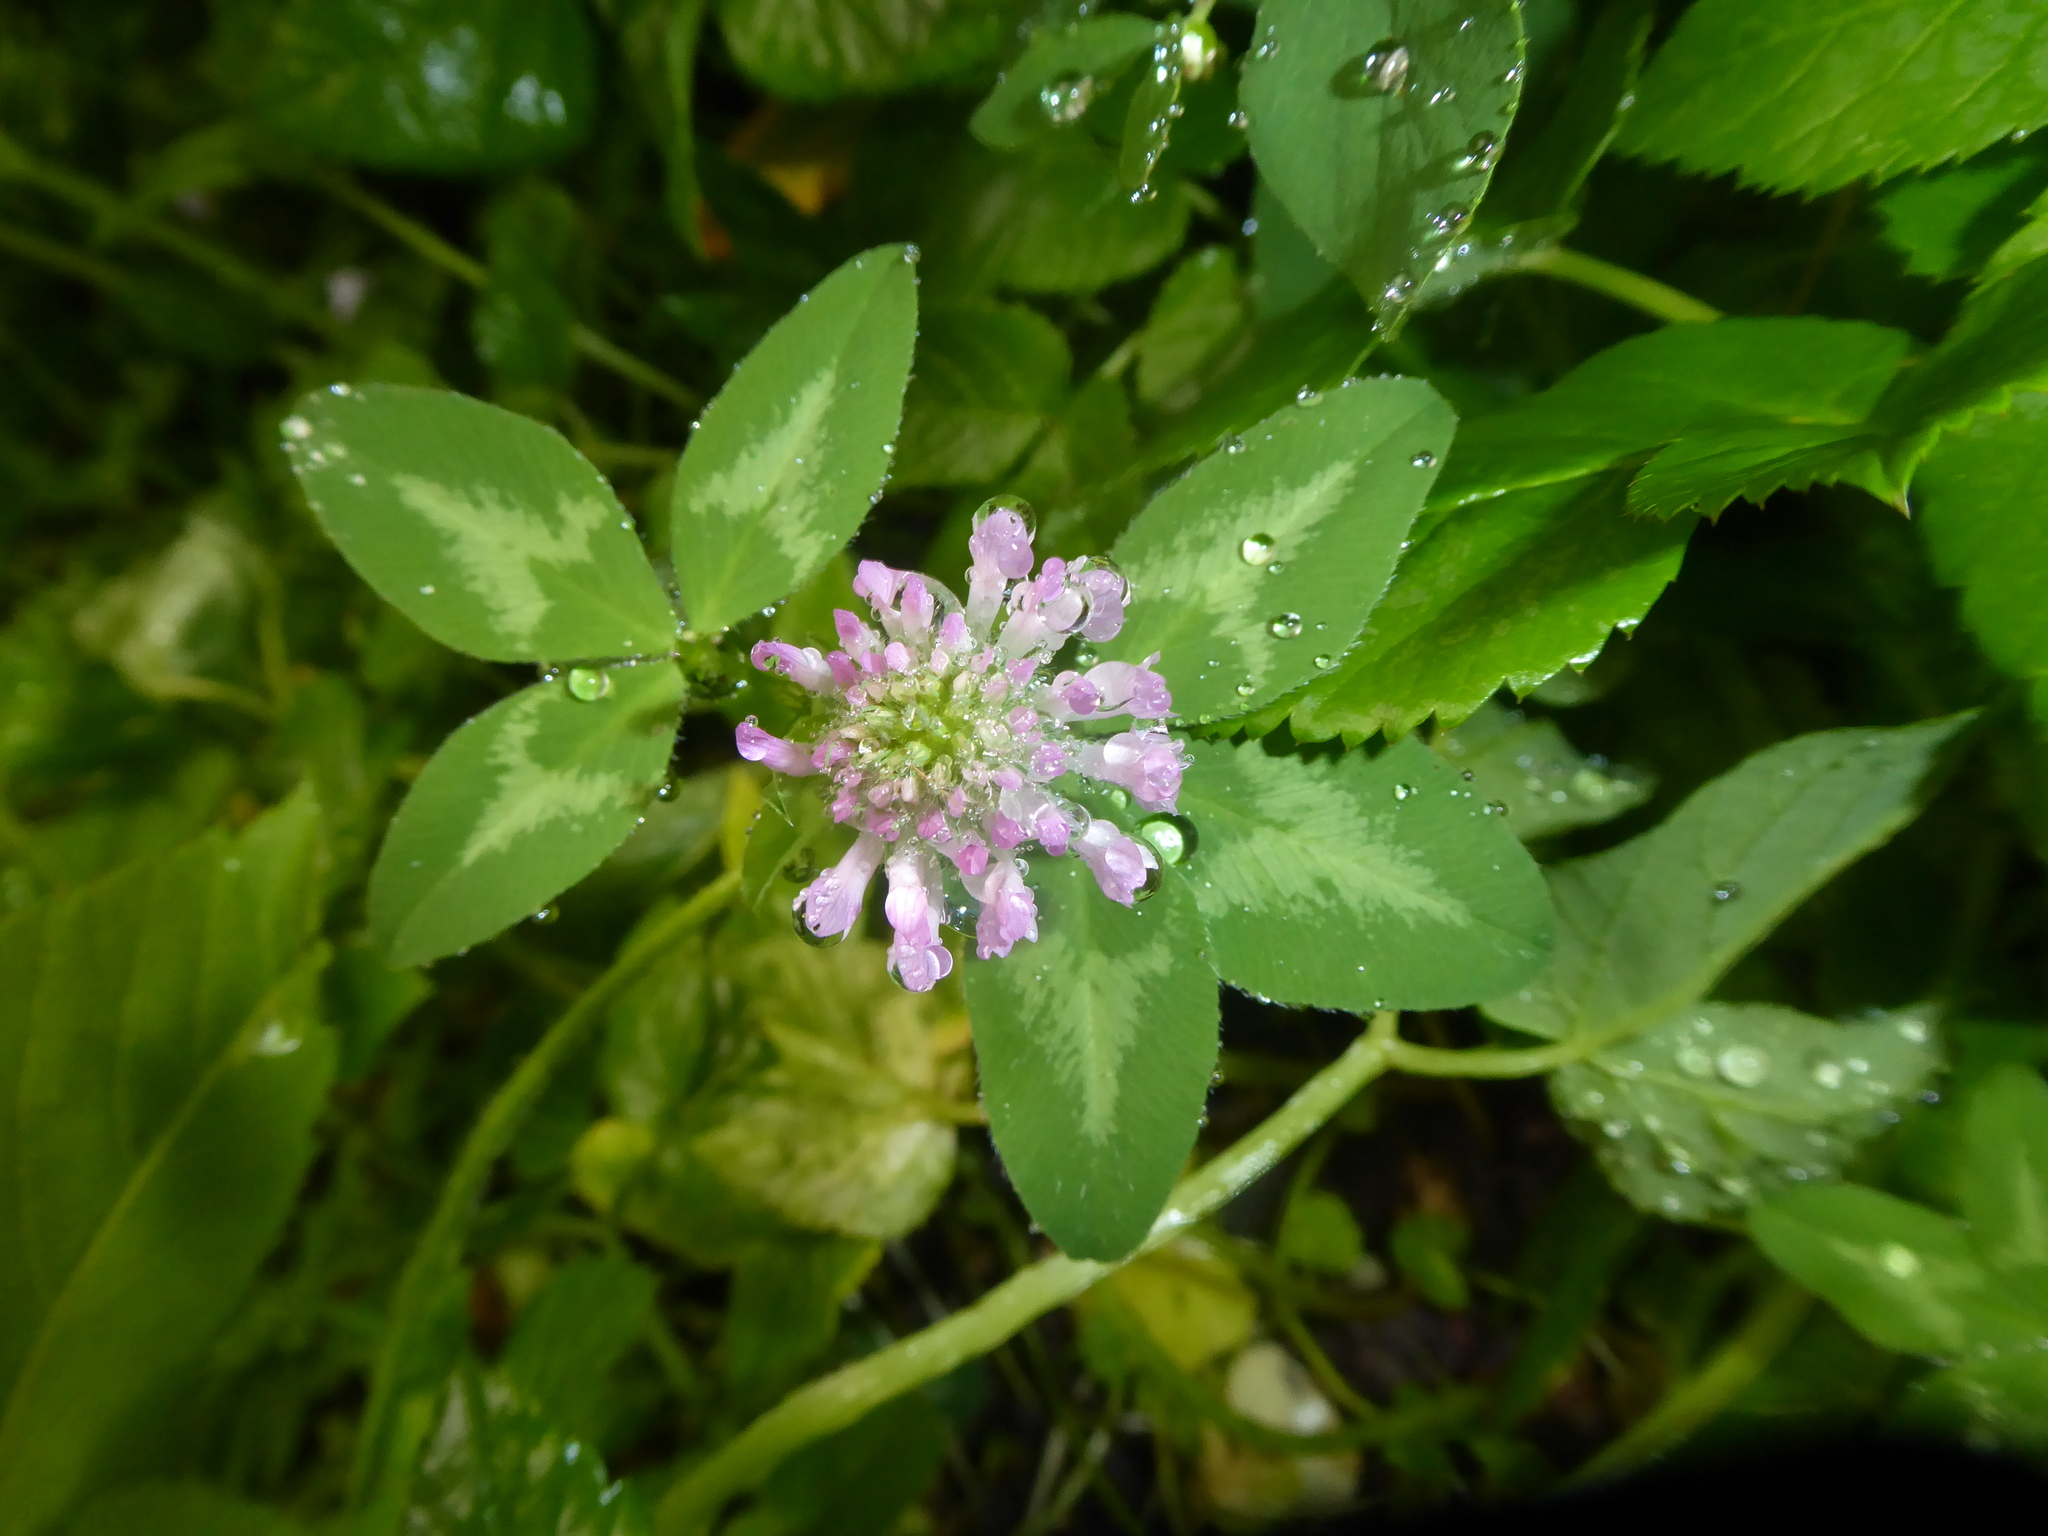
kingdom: Plantae
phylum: Tracheophyta
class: Magnoliopsida
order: Fabales
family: Fabaceae
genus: Trifolium
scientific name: Trifolium pratense
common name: Red clover
